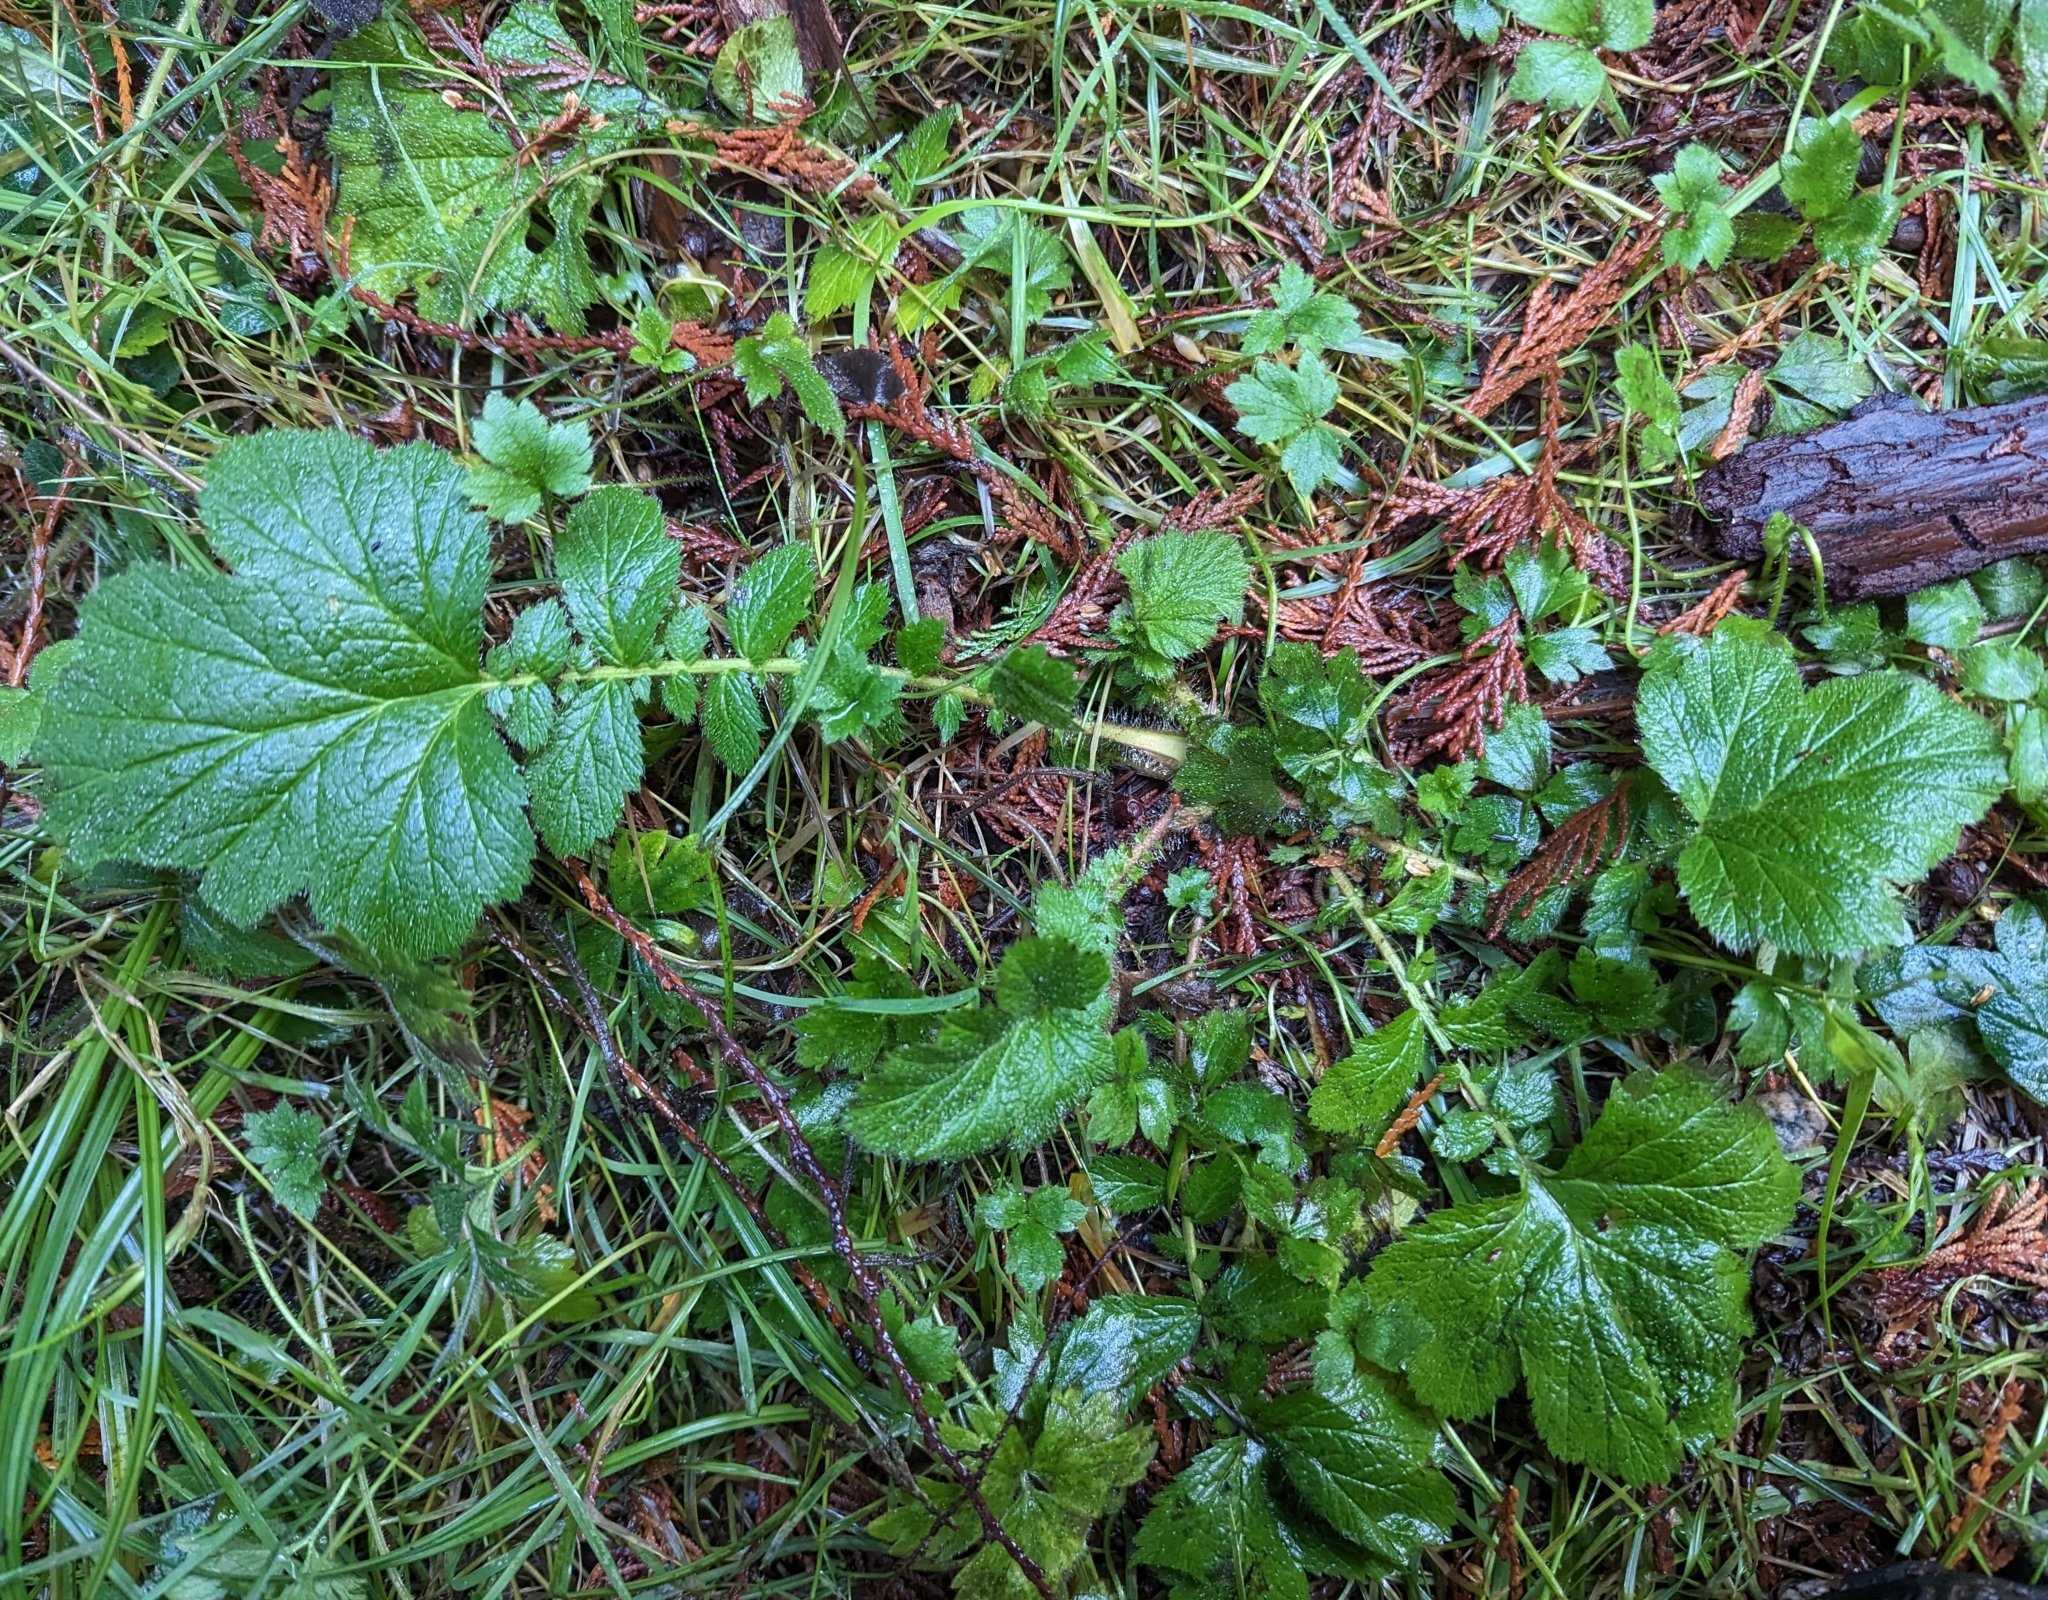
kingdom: Plantae
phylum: Tracheophyta
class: Magnoliopsida
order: Rosales
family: Rosaceae
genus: Geum
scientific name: Geum macrophyllum
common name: Large-leaved avens
